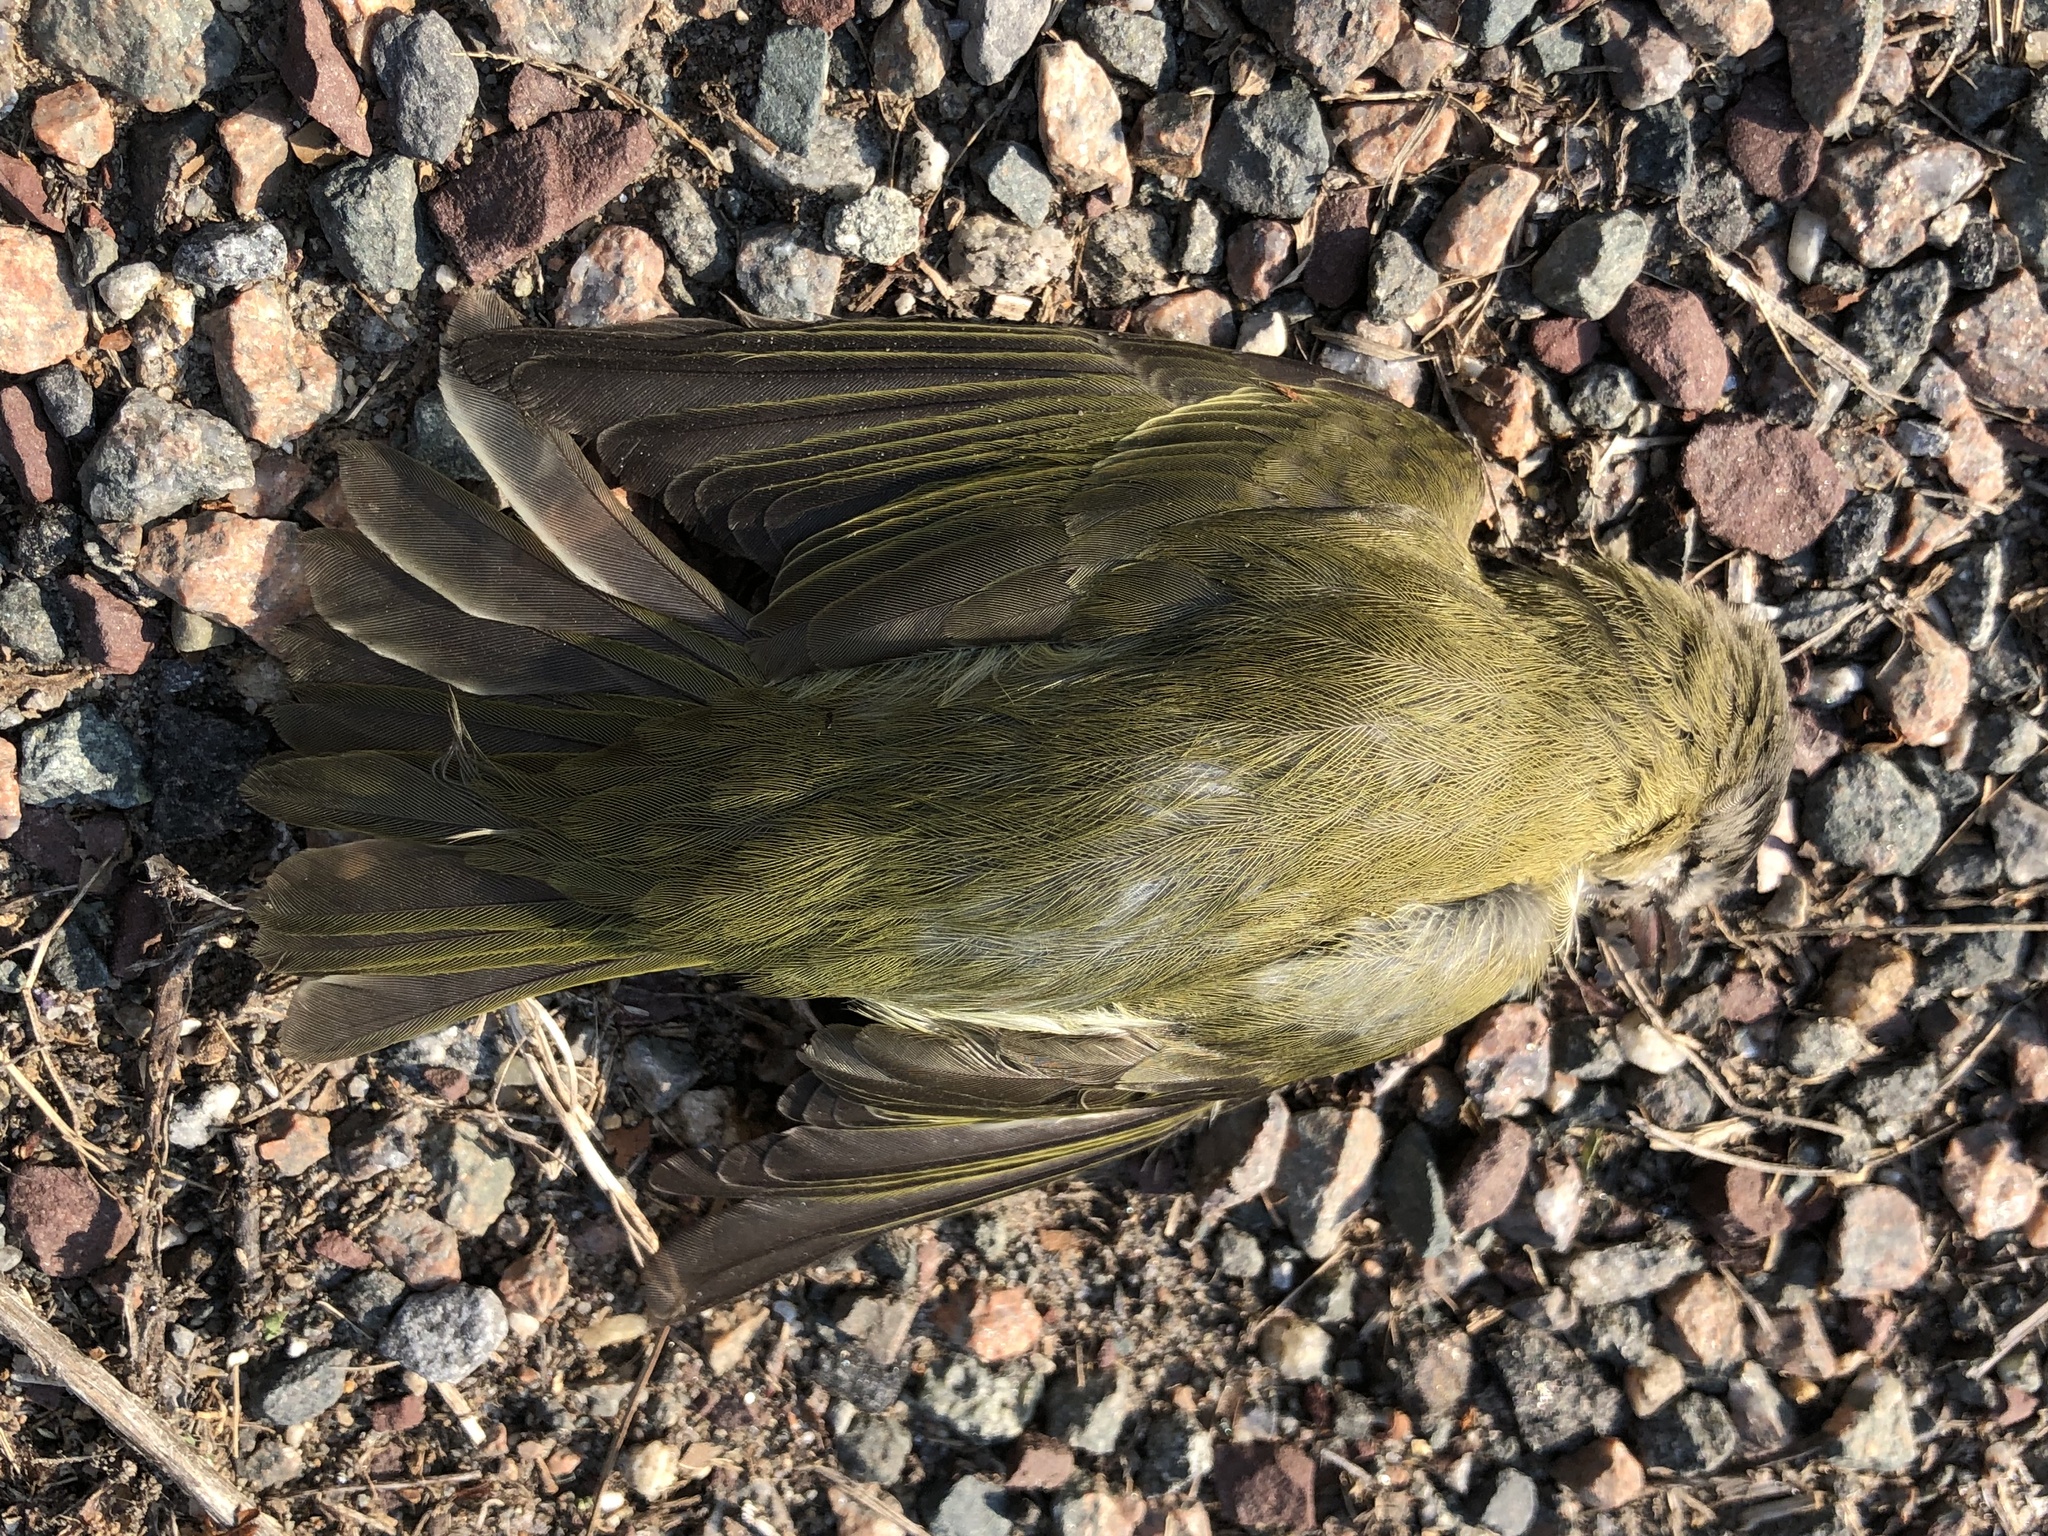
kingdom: Animalia
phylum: Chordata
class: Aves
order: Passeriformes
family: Vireonidae
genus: Vireo
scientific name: Vireo olivaceus
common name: Red-eyed vireo
